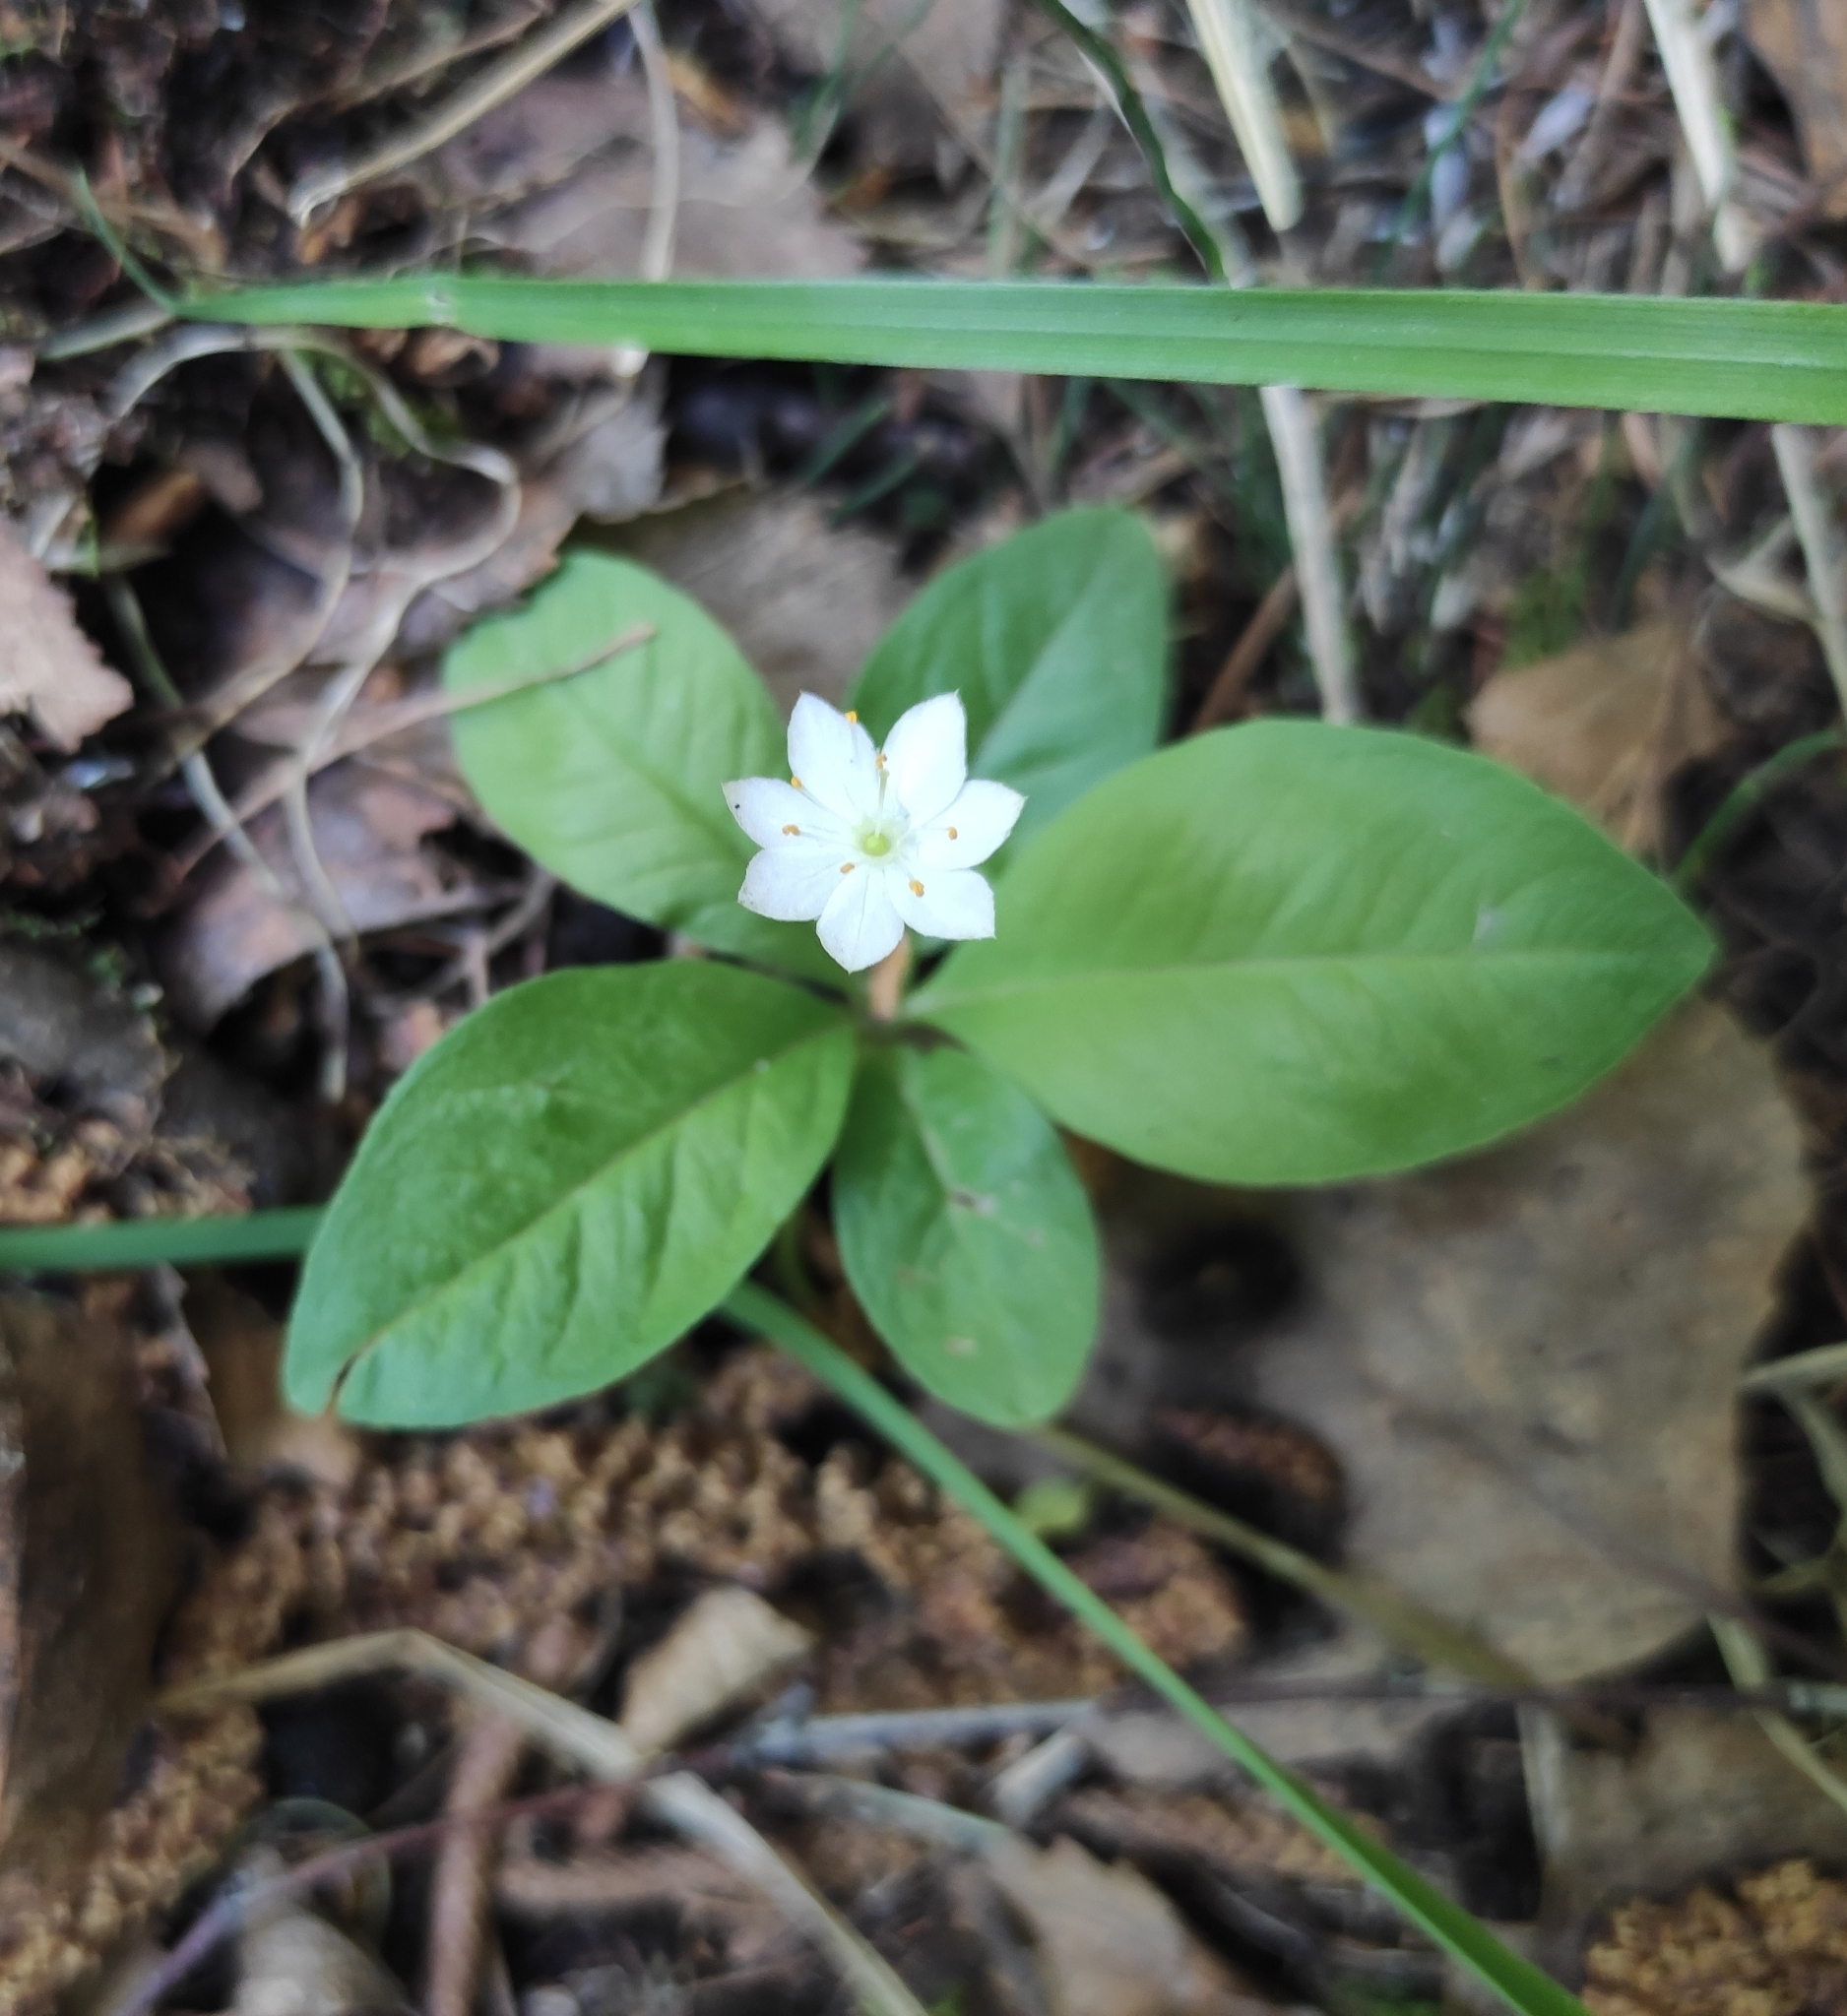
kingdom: Plantae
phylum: Tracheophyta
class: Magnoliopsida
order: Ericales
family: Primulaceae
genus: Lysimachia
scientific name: Lysimachia europaea
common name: Arctic starflower
